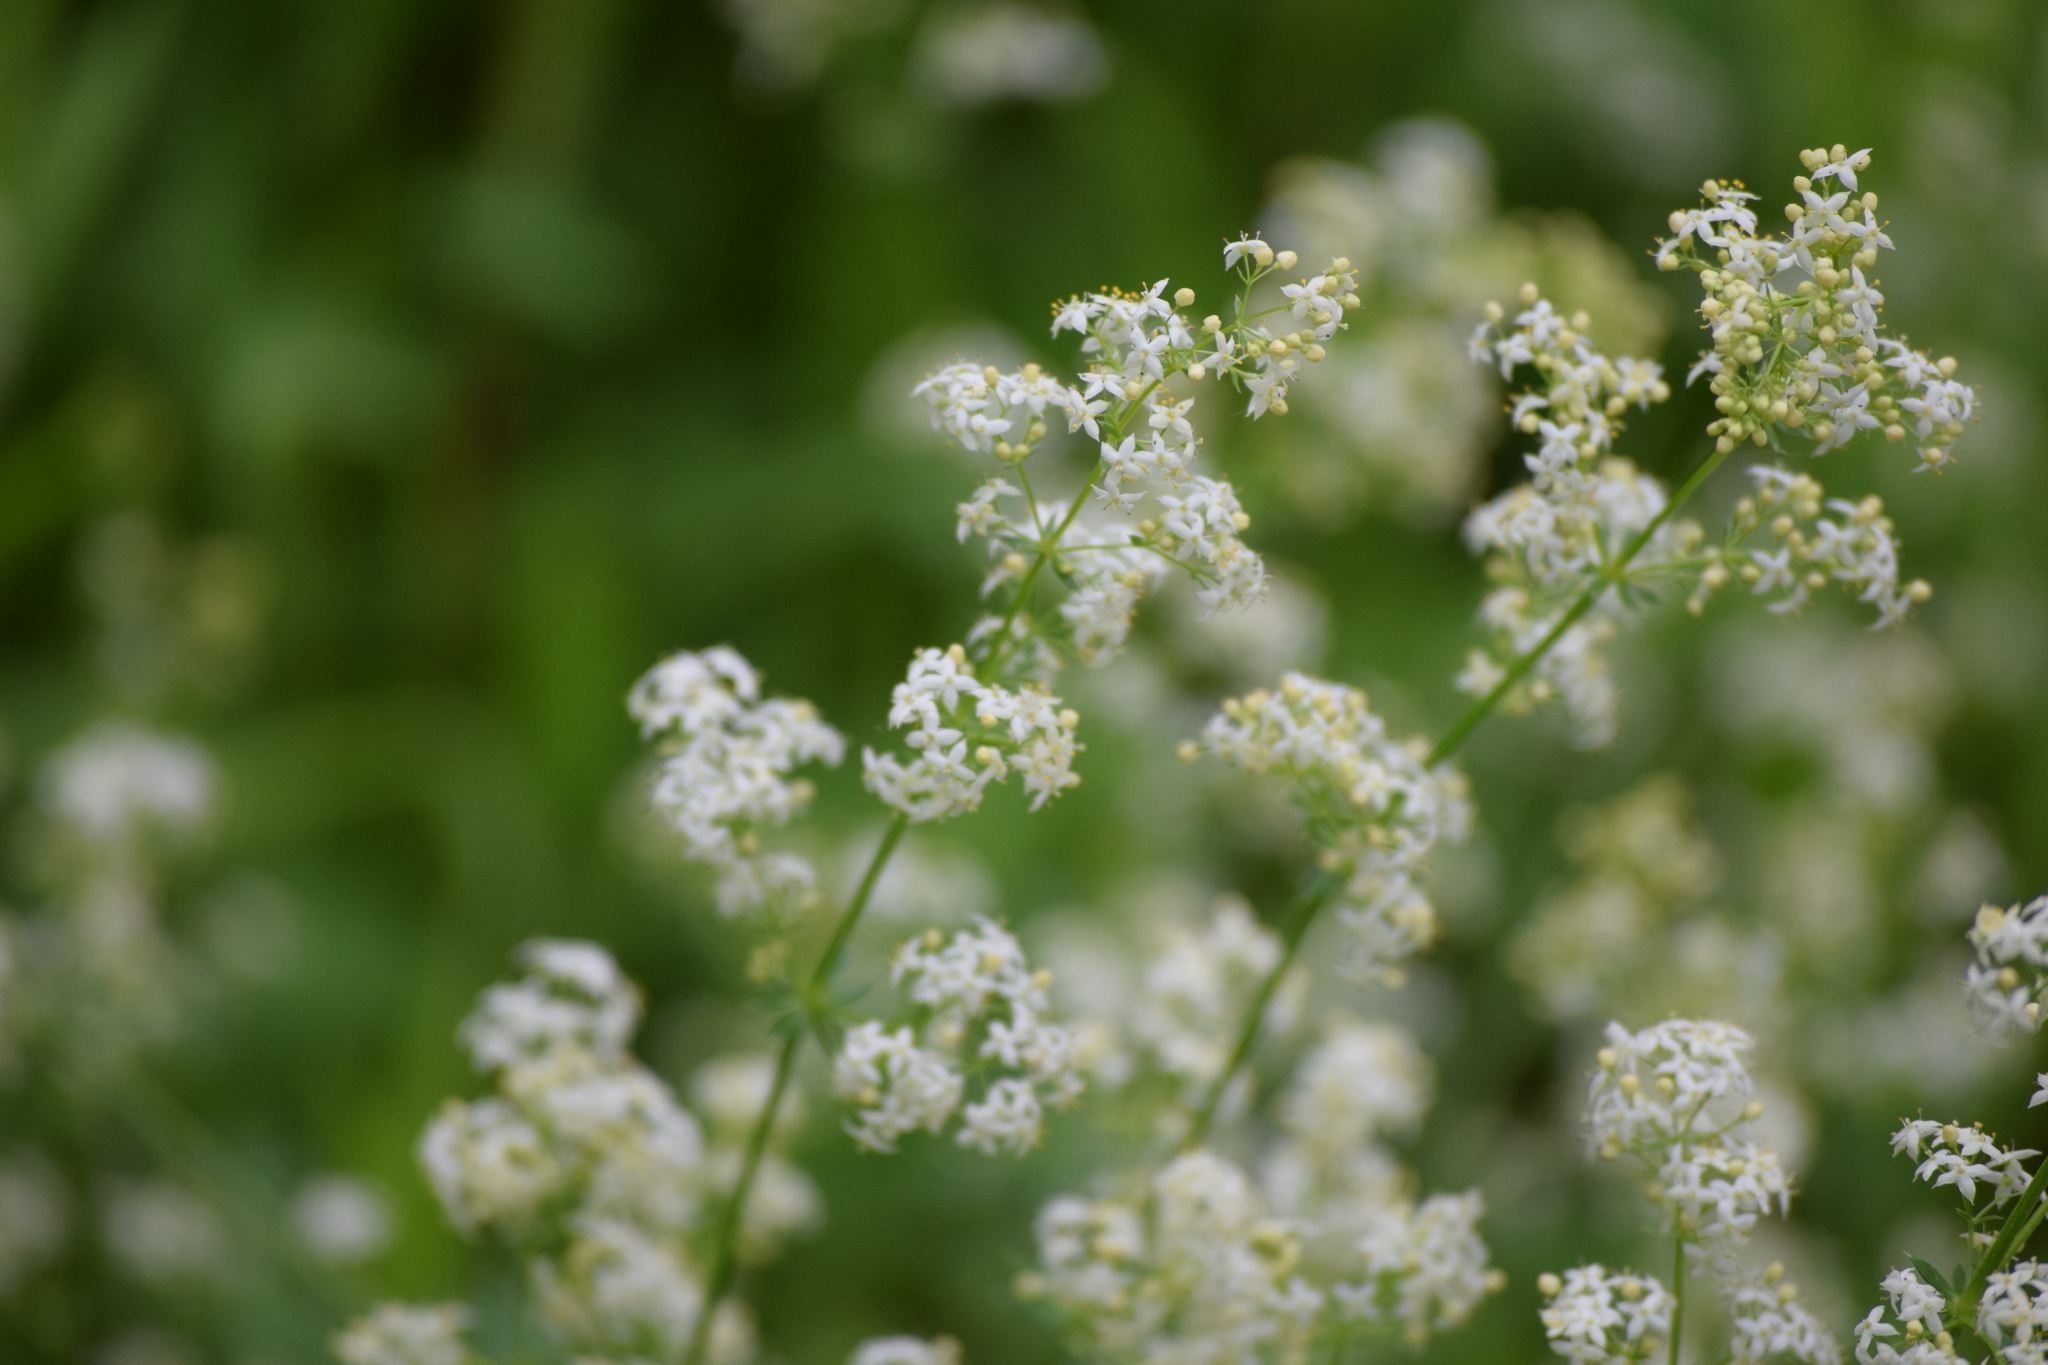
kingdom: Plantae
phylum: Tracheophyta
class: Magnoliopsida
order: Gentianales
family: Rubiaceae
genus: Galium
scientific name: Galium album
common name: White bedstraw
